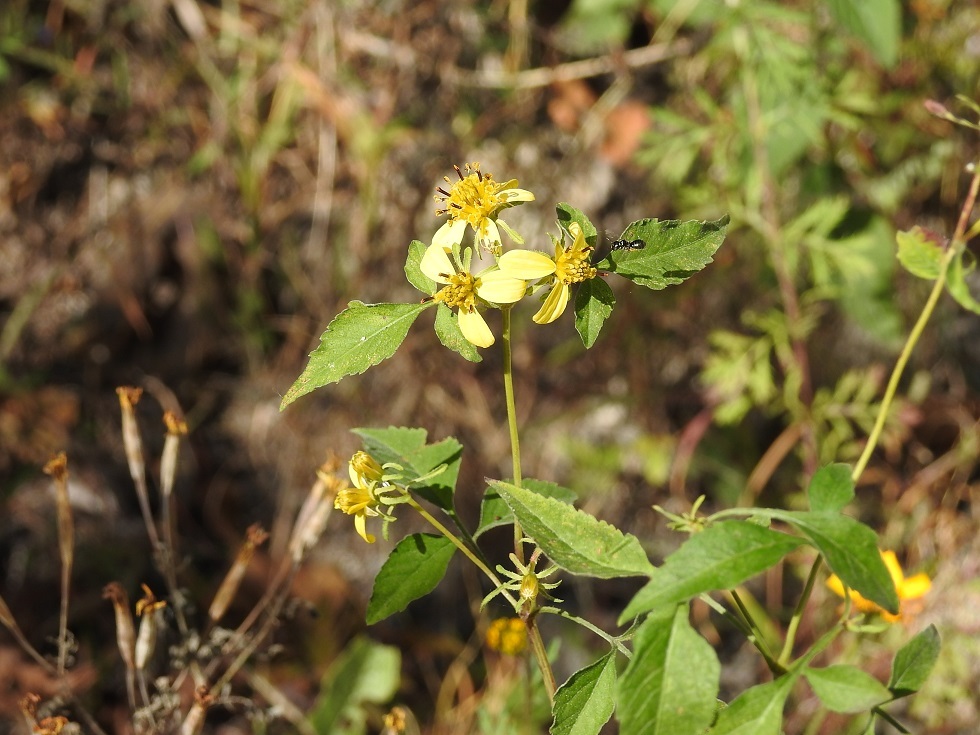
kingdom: Plantae
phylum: Tracheophyta
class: Magnoliopsida
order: Asterales
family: Asteraceae
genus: Bidens
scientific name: Bidens reptans
